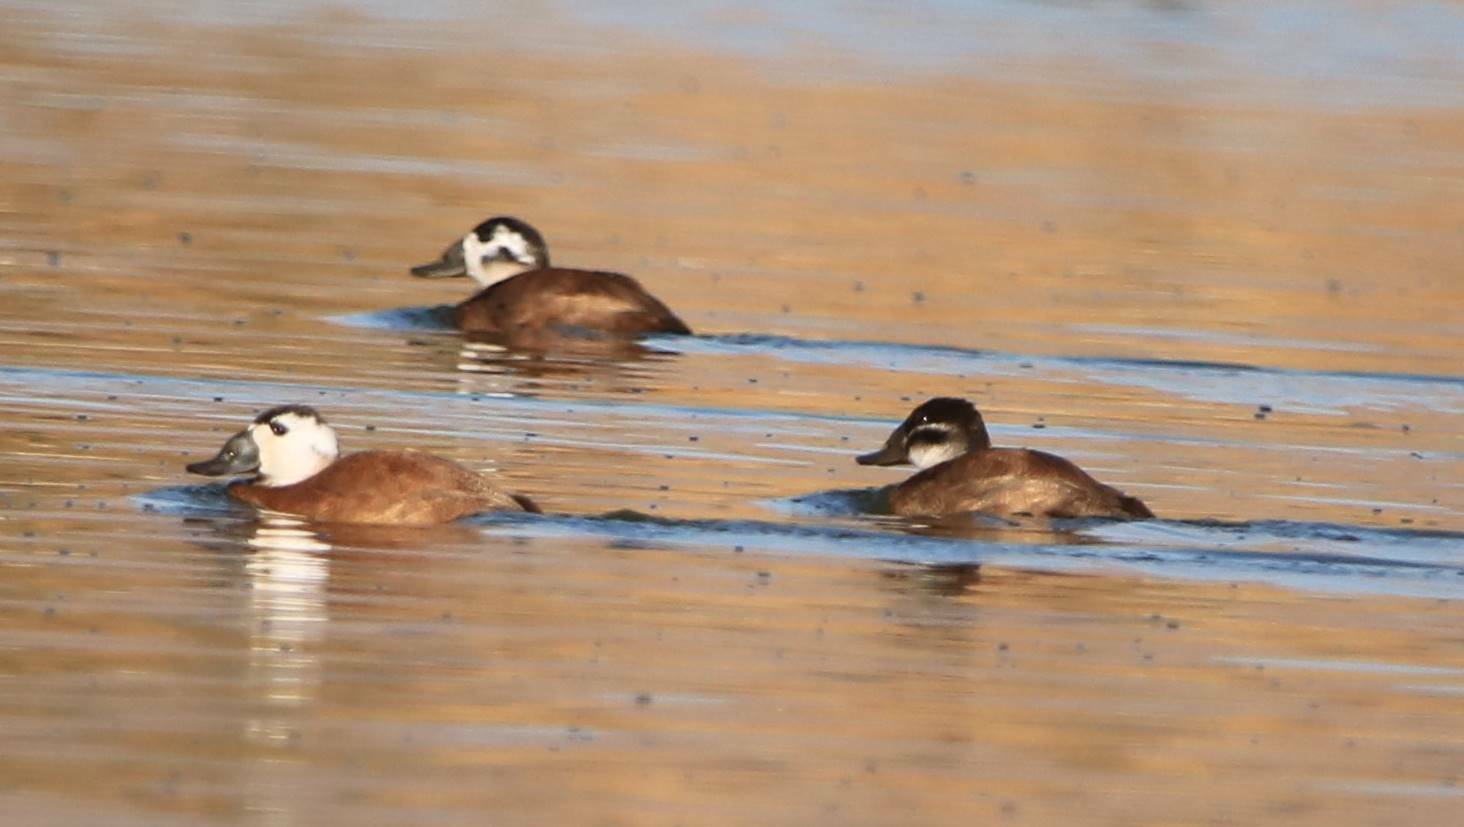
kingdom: Animalia
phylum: Chordata
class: Aves
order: Anseriformes
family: Anatidae
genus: Oxyura
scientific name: Oxyura leucocephala
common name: White-headed duck
